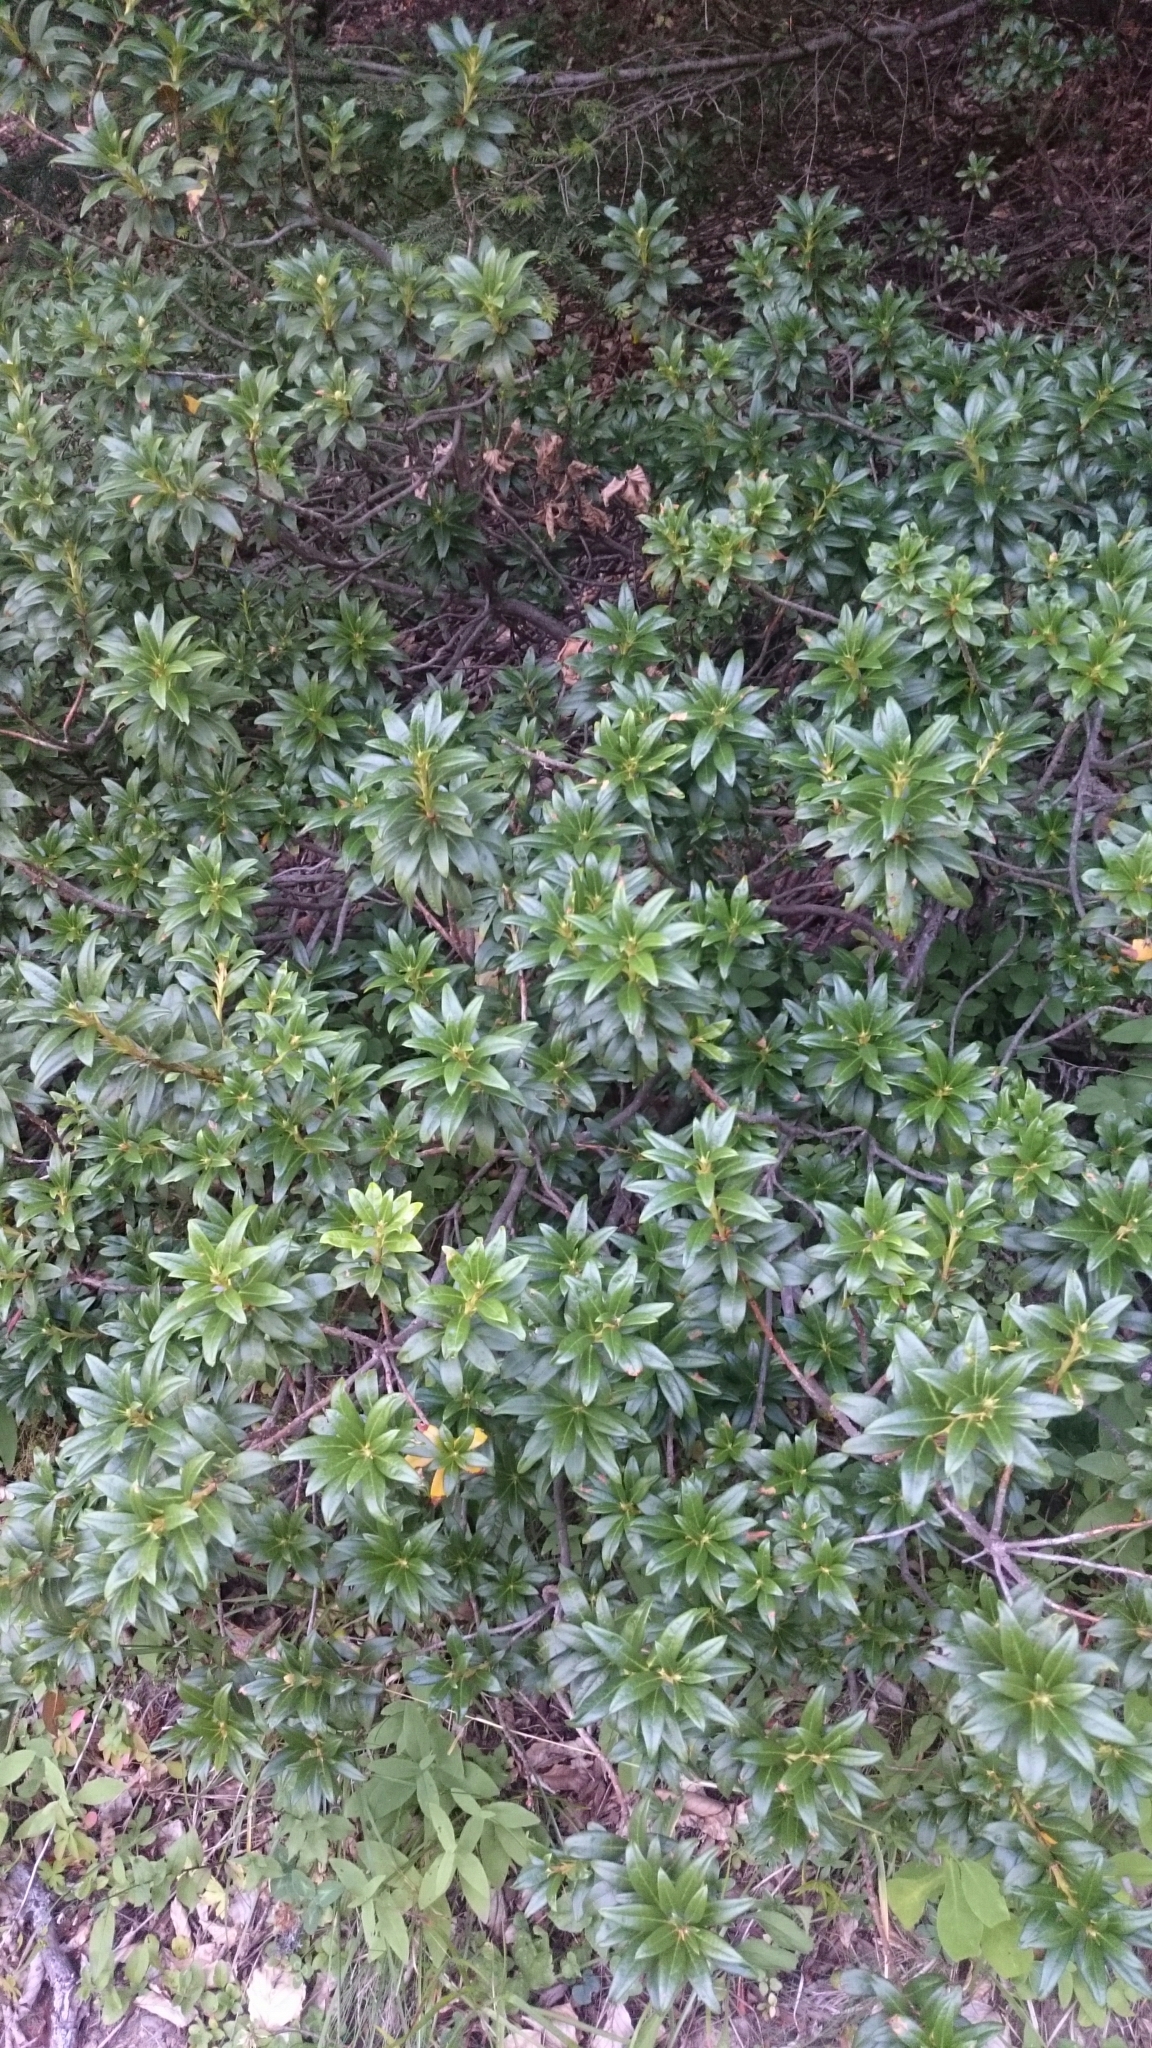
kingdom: Plantae
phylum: Tracheophyta
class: Magnoliopsida
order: Ericales
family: Ericaceae
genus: Rhododendron
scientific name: Rhododendron ferrugineum
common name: Alpenrose
